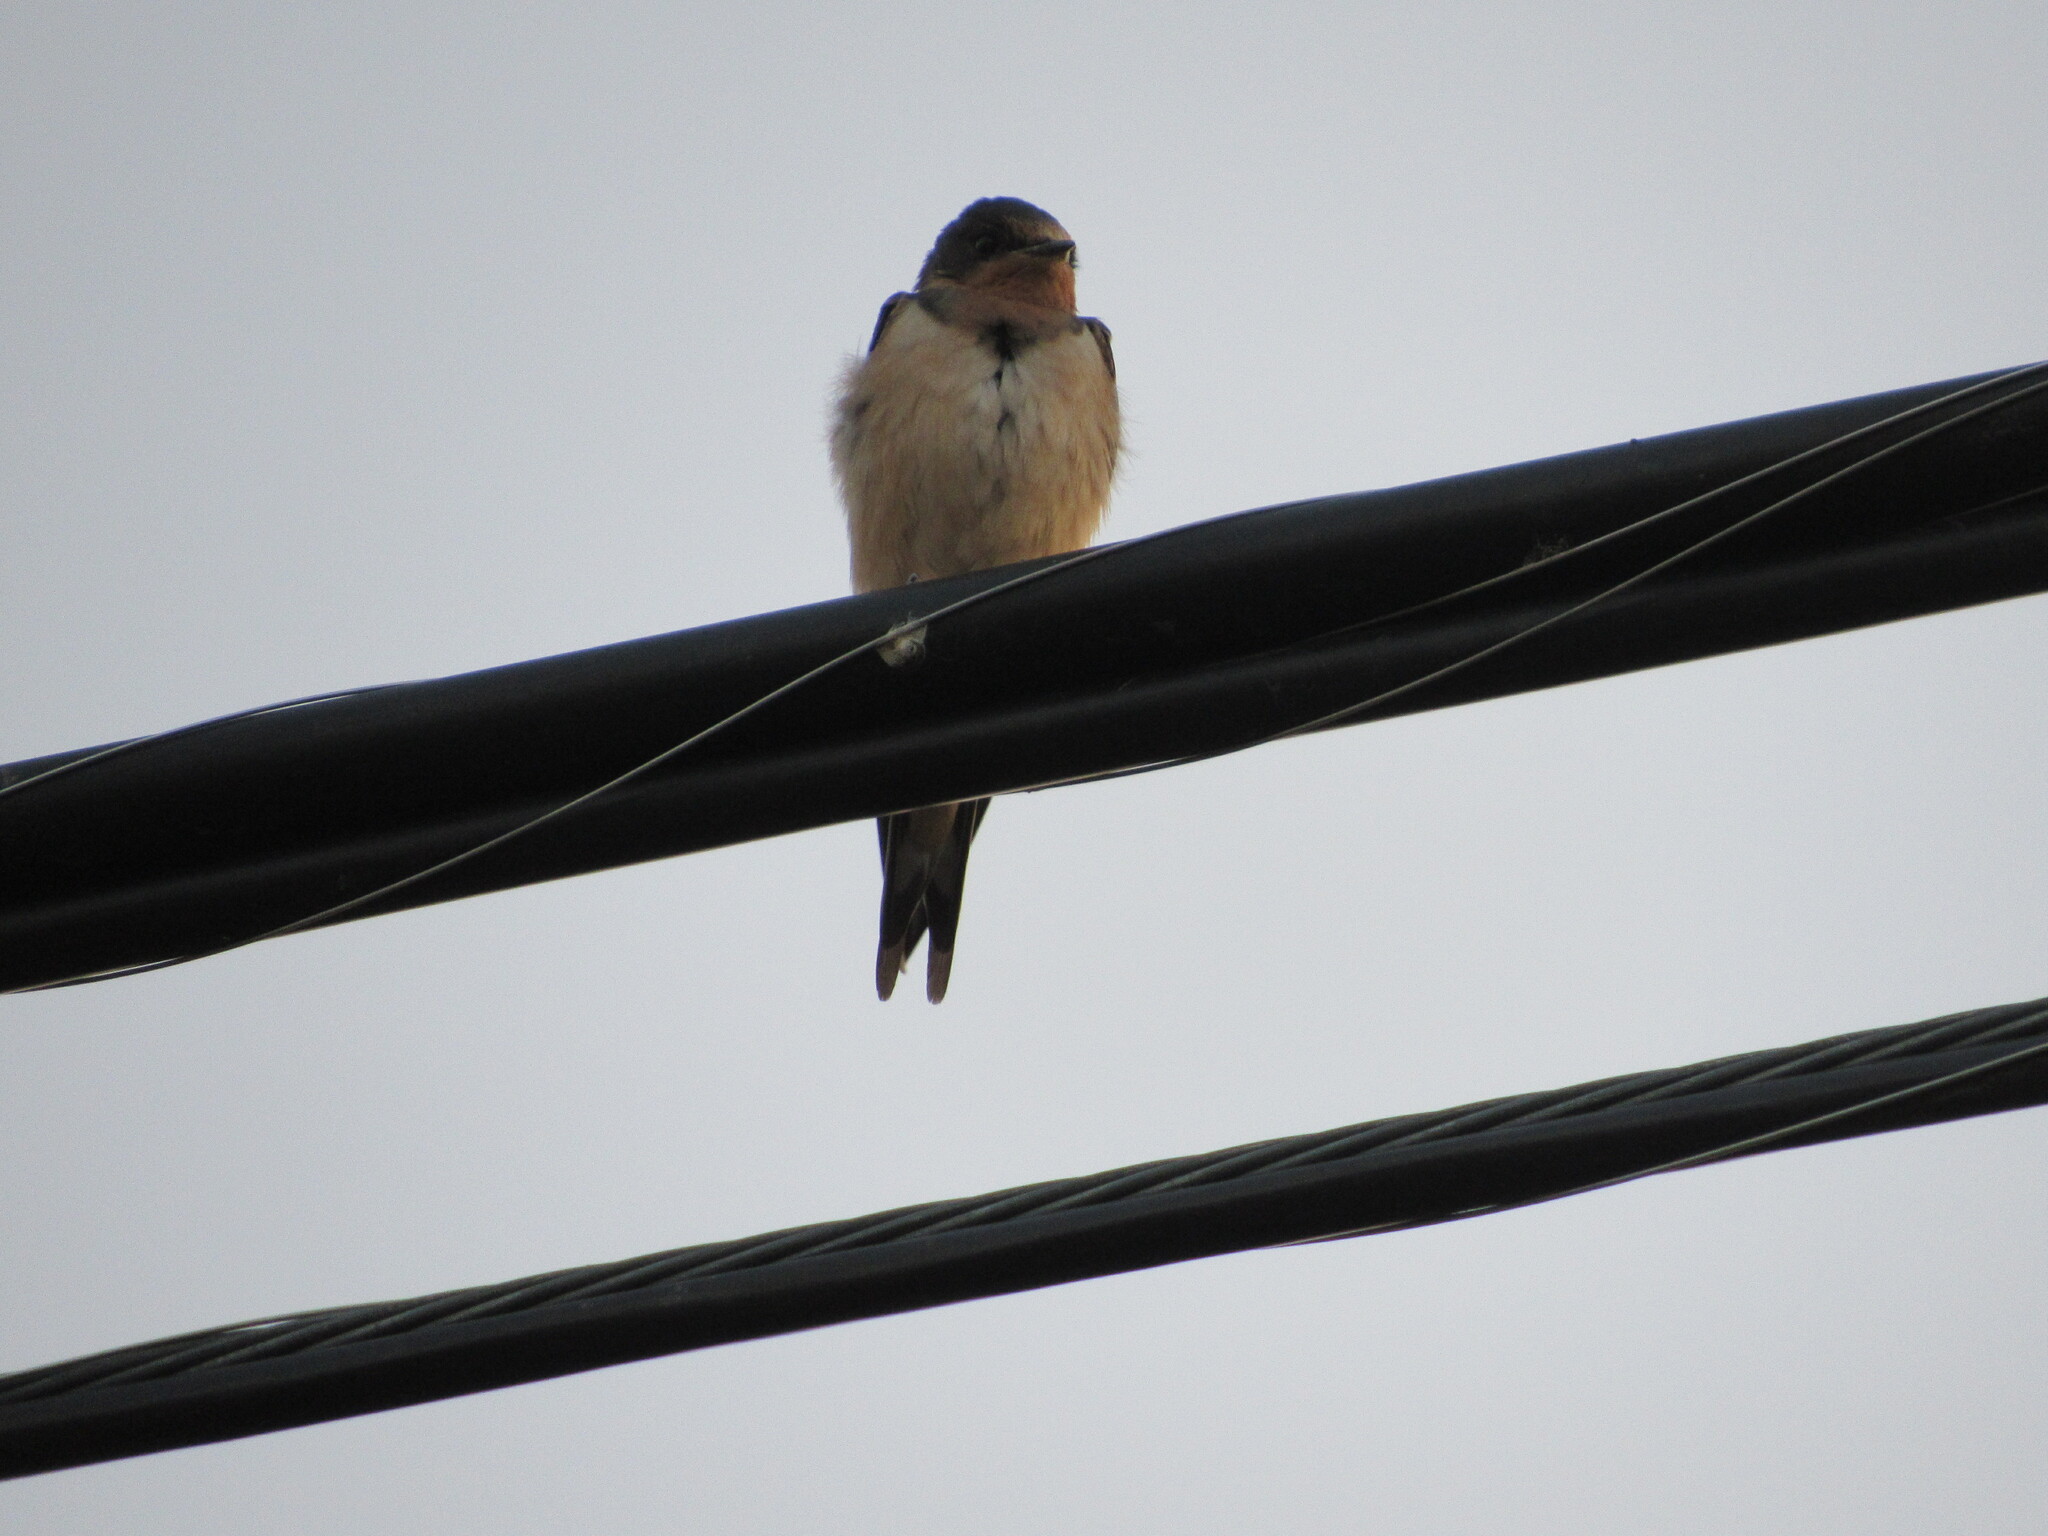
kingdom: Animalia
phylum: Chordata
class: Aves
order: Passeriformes
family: Hirundinidae
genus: Hirundo
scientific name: Hirundo rustica
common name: Barn swallow
